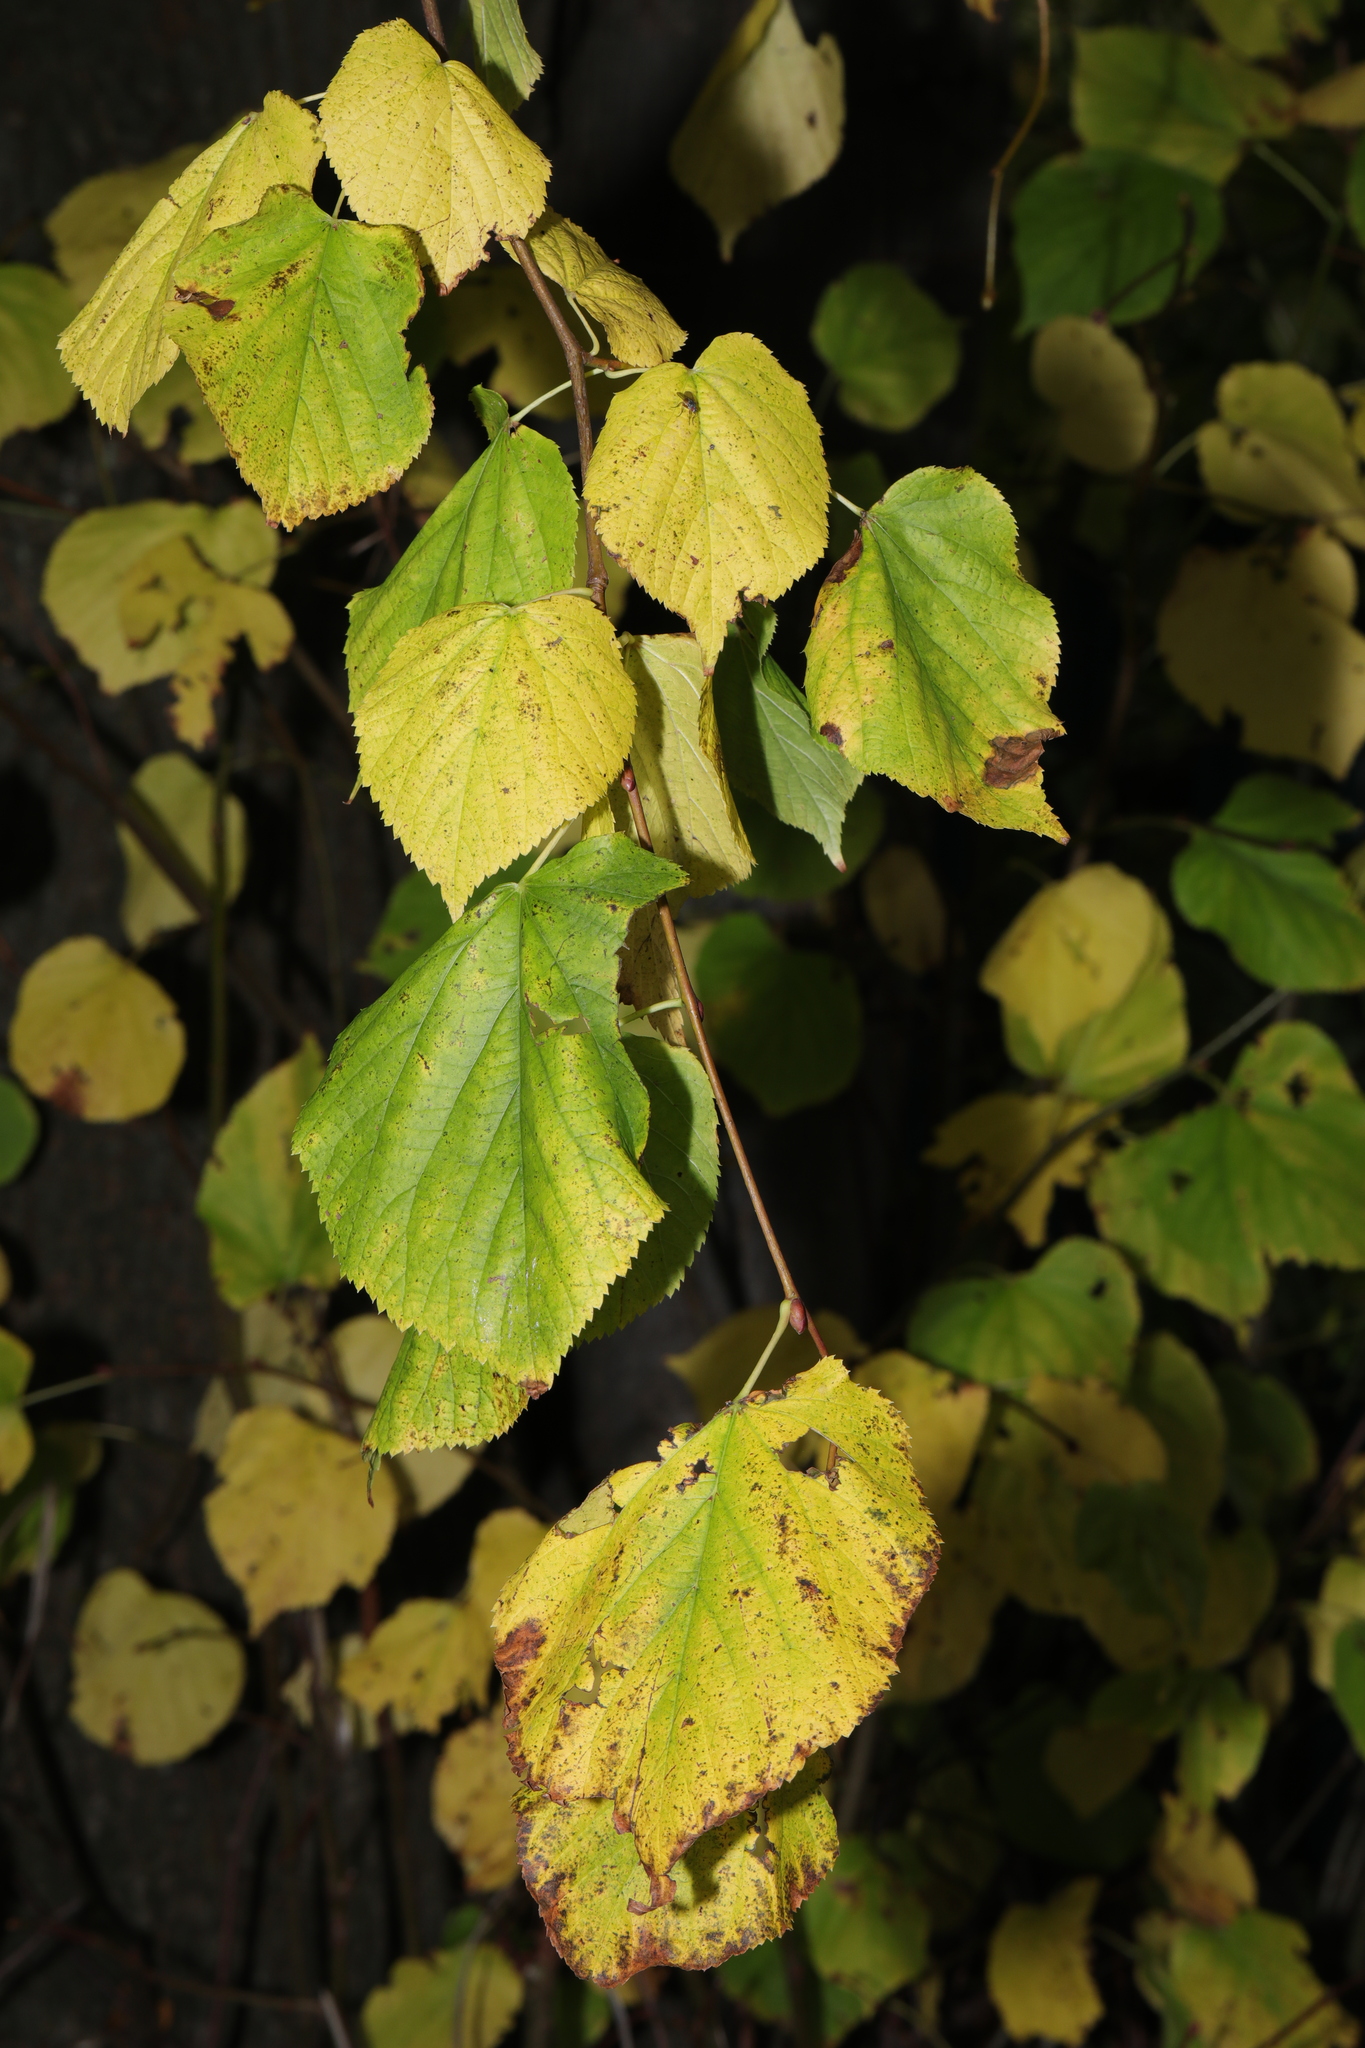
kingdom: Plantae
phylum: Tracheophyta
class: Magnoliopsida
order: Malvales
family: Malvaceae
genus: Tilia
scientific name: Tilia europaea
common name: European linden
